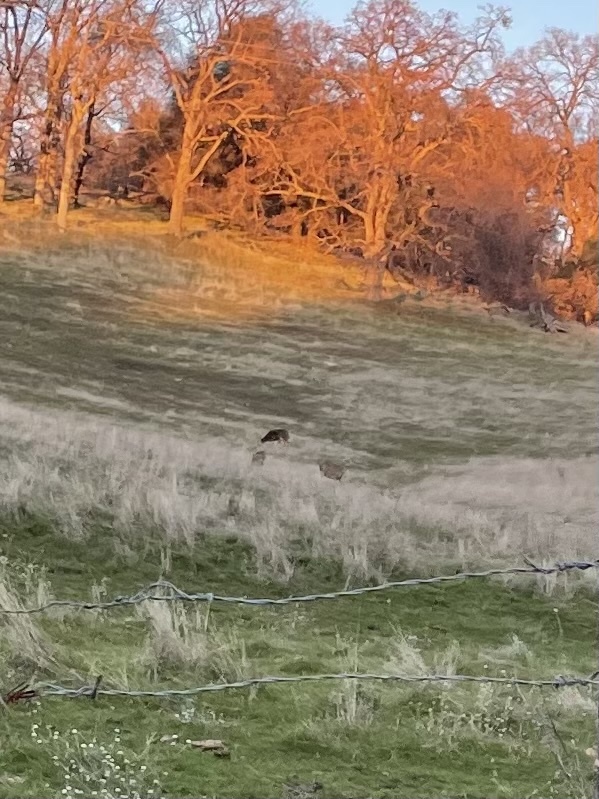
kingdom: Animalia
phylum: Chordata
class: Mammalia
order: Artiodactyla
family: Cervidae
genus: Odocoileus
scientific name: Odocoileus hemionus
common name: Mule deer
